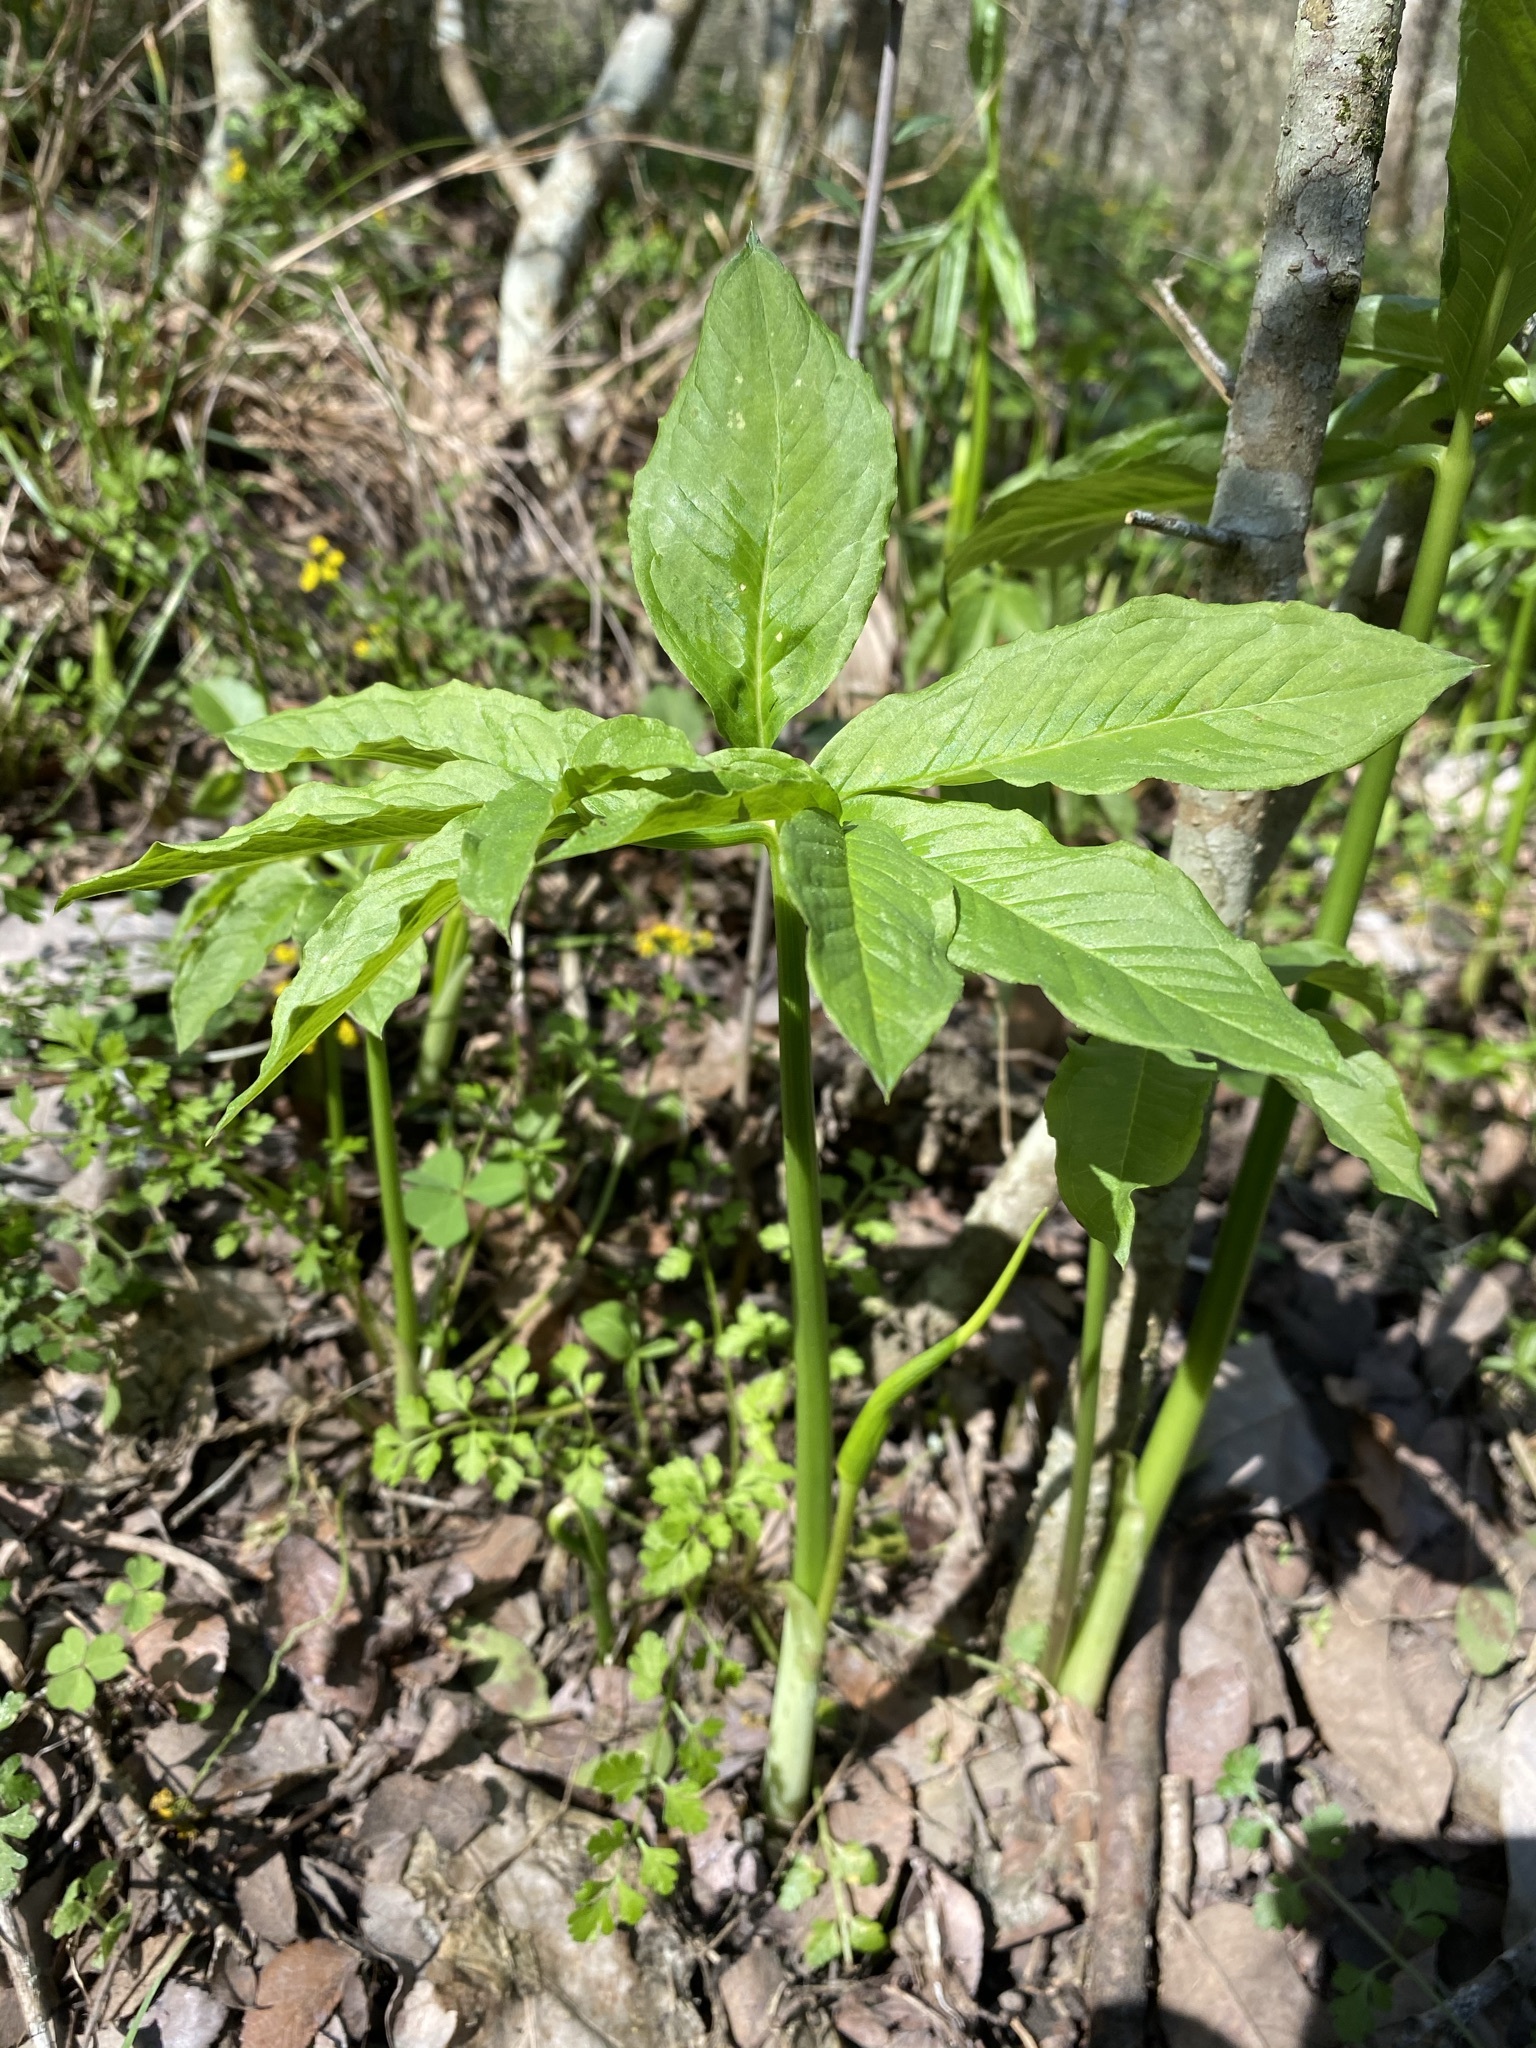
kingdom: Plantae
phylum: Tracheophyta
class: Liliopsida
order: Alismatales
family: Araceae
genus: Arisaema
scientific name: Arisaema dracontium
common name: Dragon-arum
